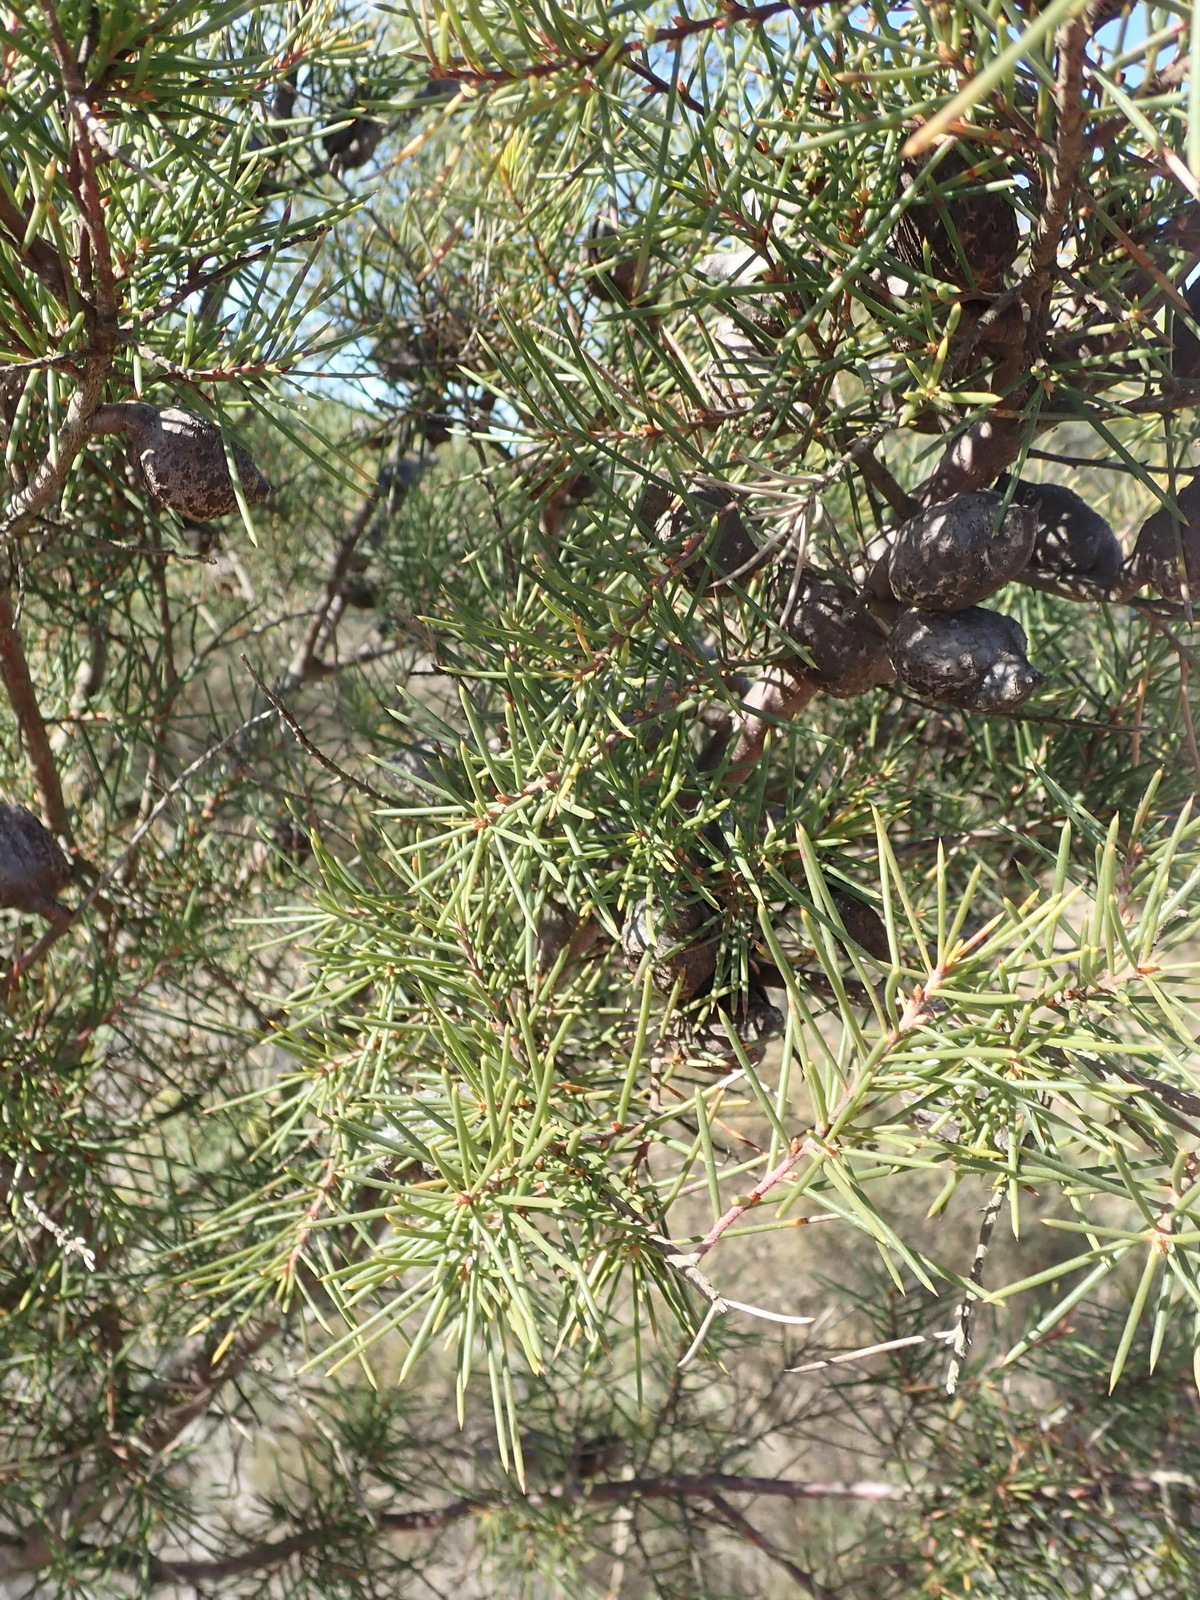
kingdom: Plantae
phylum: Tracheophyta
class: Magnoliopsida
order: Proteales
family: Proteaceae
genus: Hakea
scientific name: Hakea sericea
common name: Needle bush
